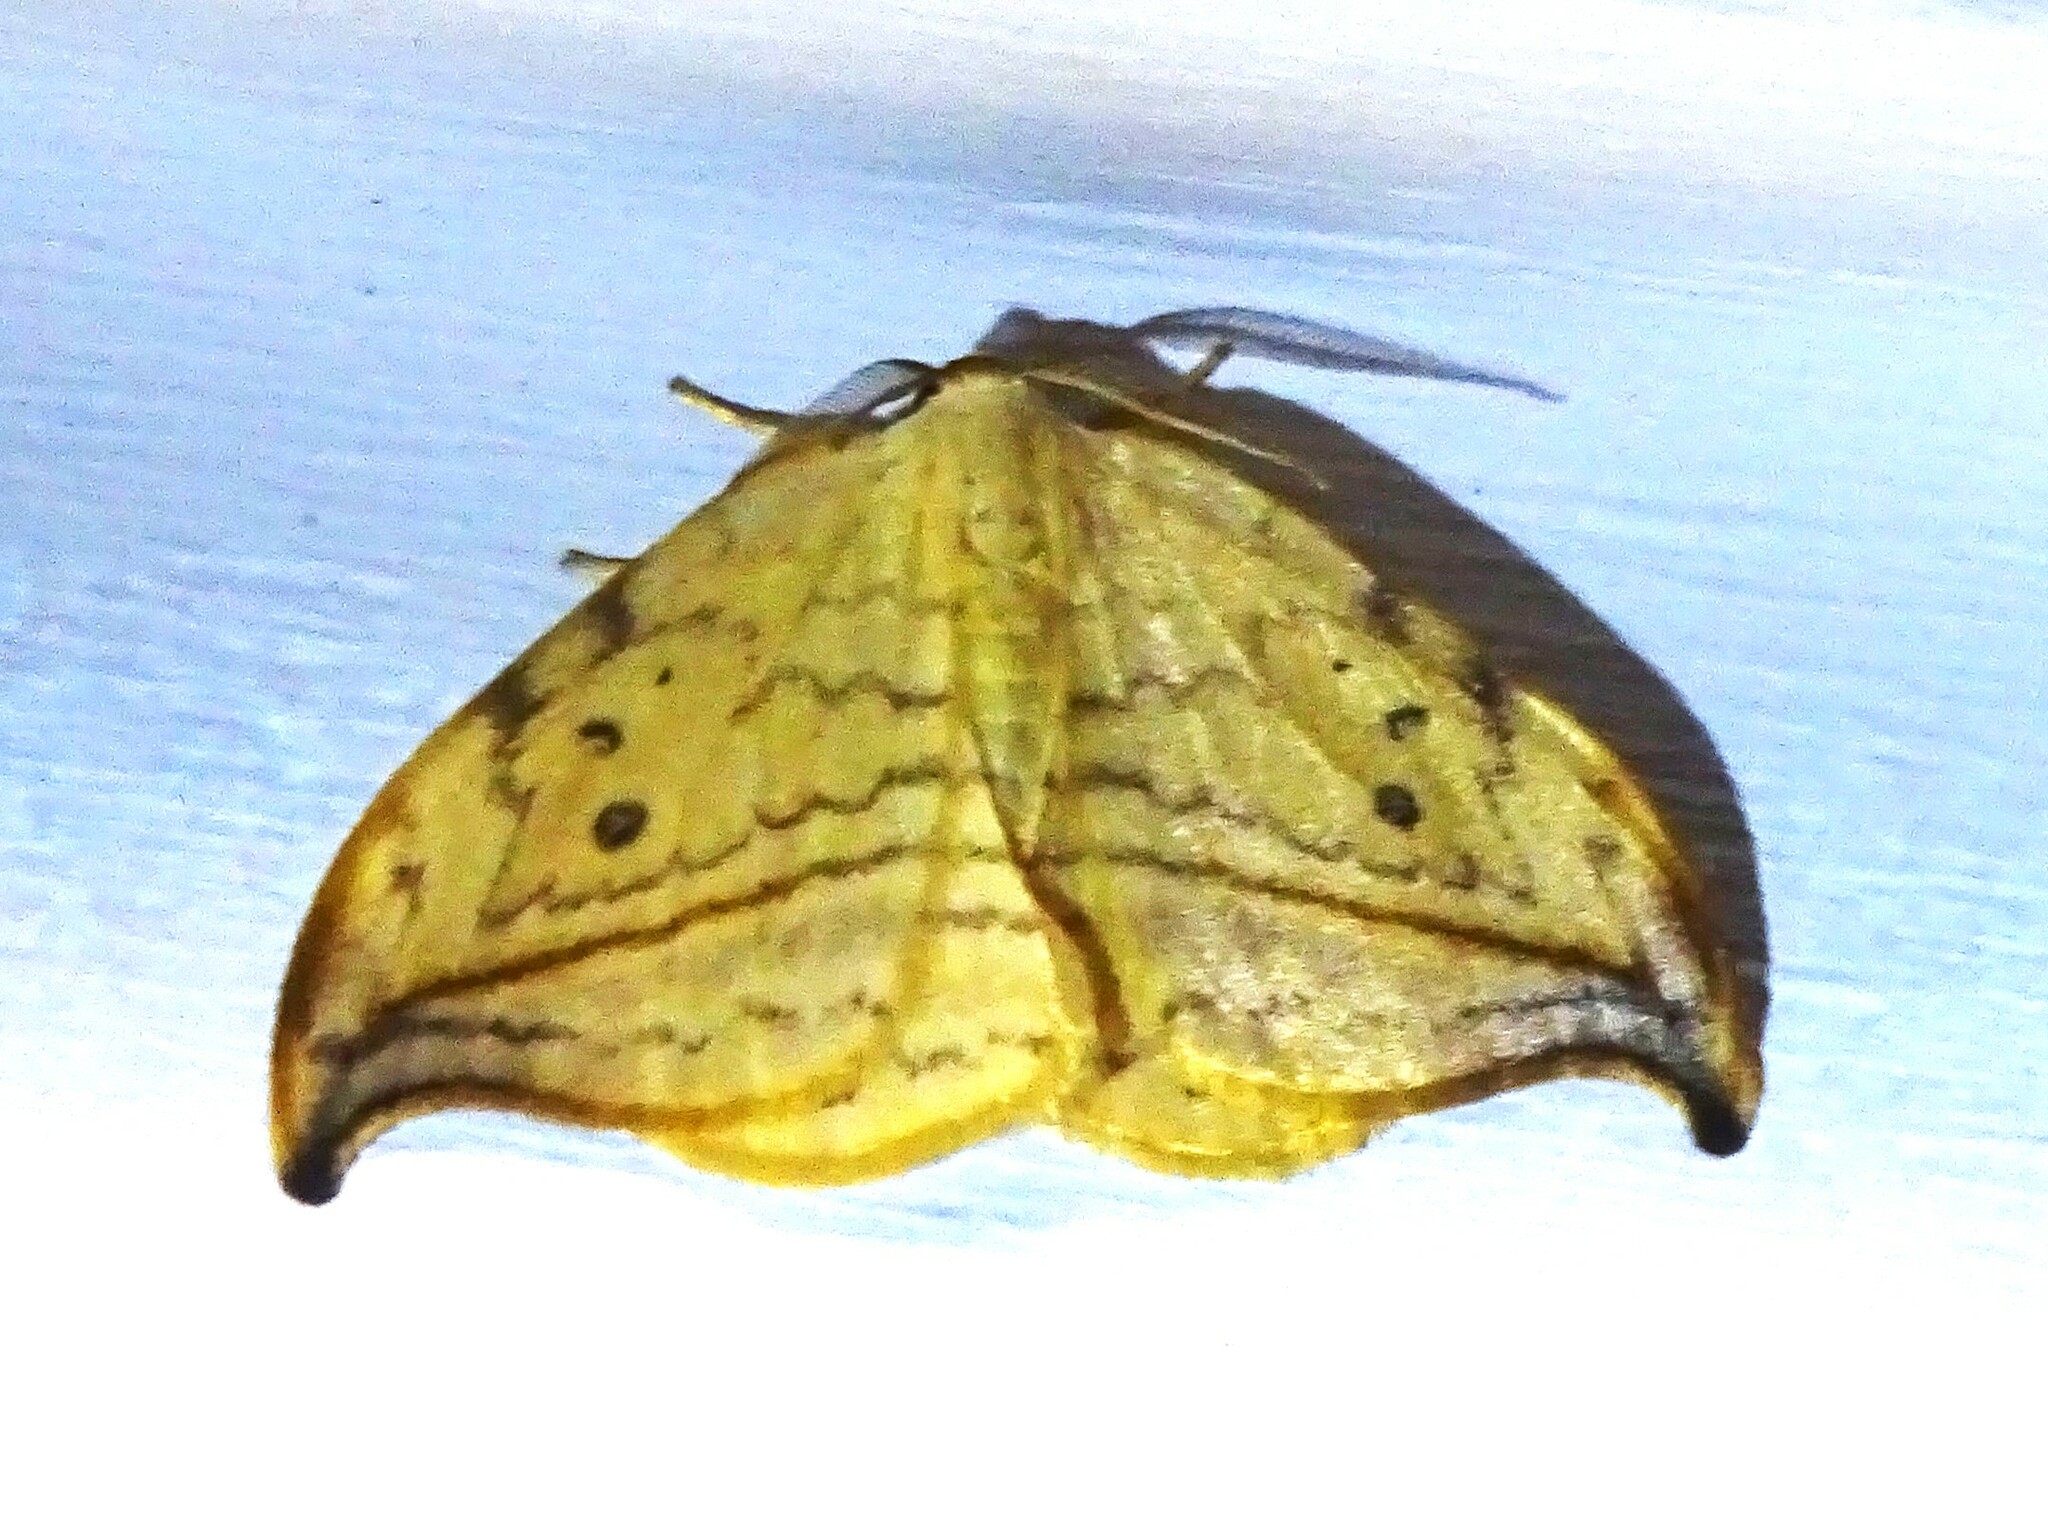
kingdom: Animalia
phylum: Arthropoda
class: Insecta
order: Lepidoptera
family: Drepanidae
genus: Drepana
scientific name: Drepana arcuata
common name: Arched hooktip moth
